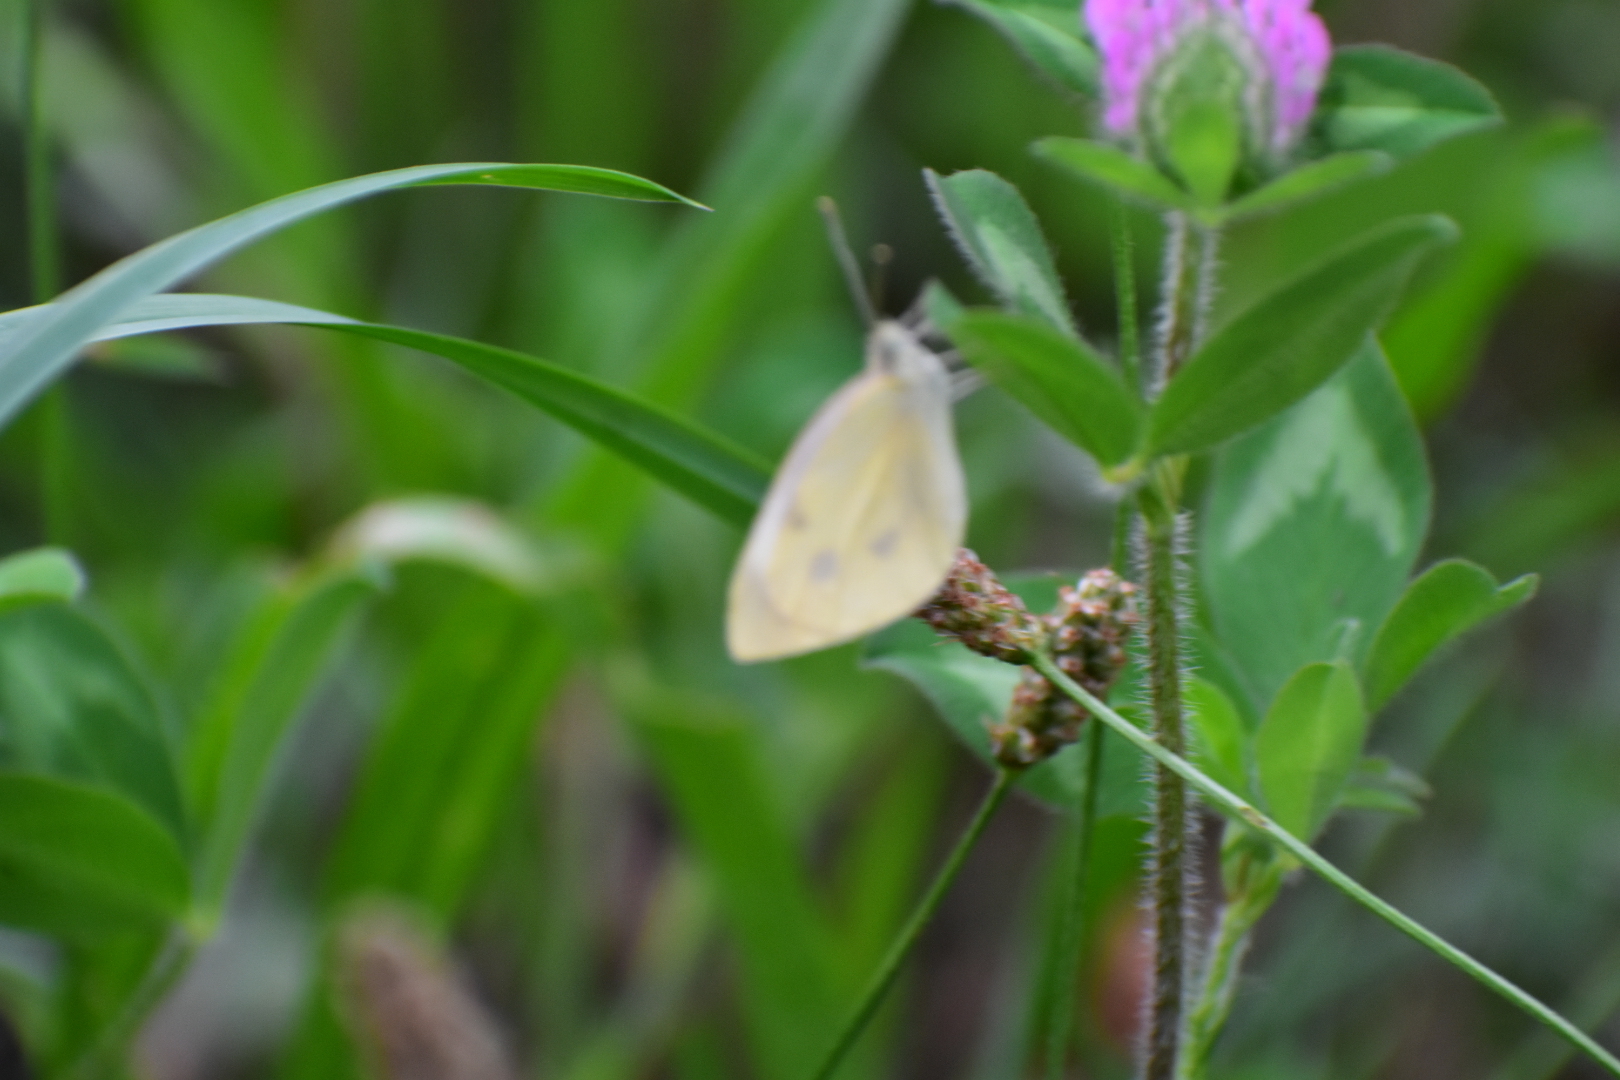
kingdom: Animalia
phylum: Arthropoda
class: Insecta
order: Lepidoptera
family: Pieridae
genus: Pieris
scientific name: Pieris rapae
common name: Small white
